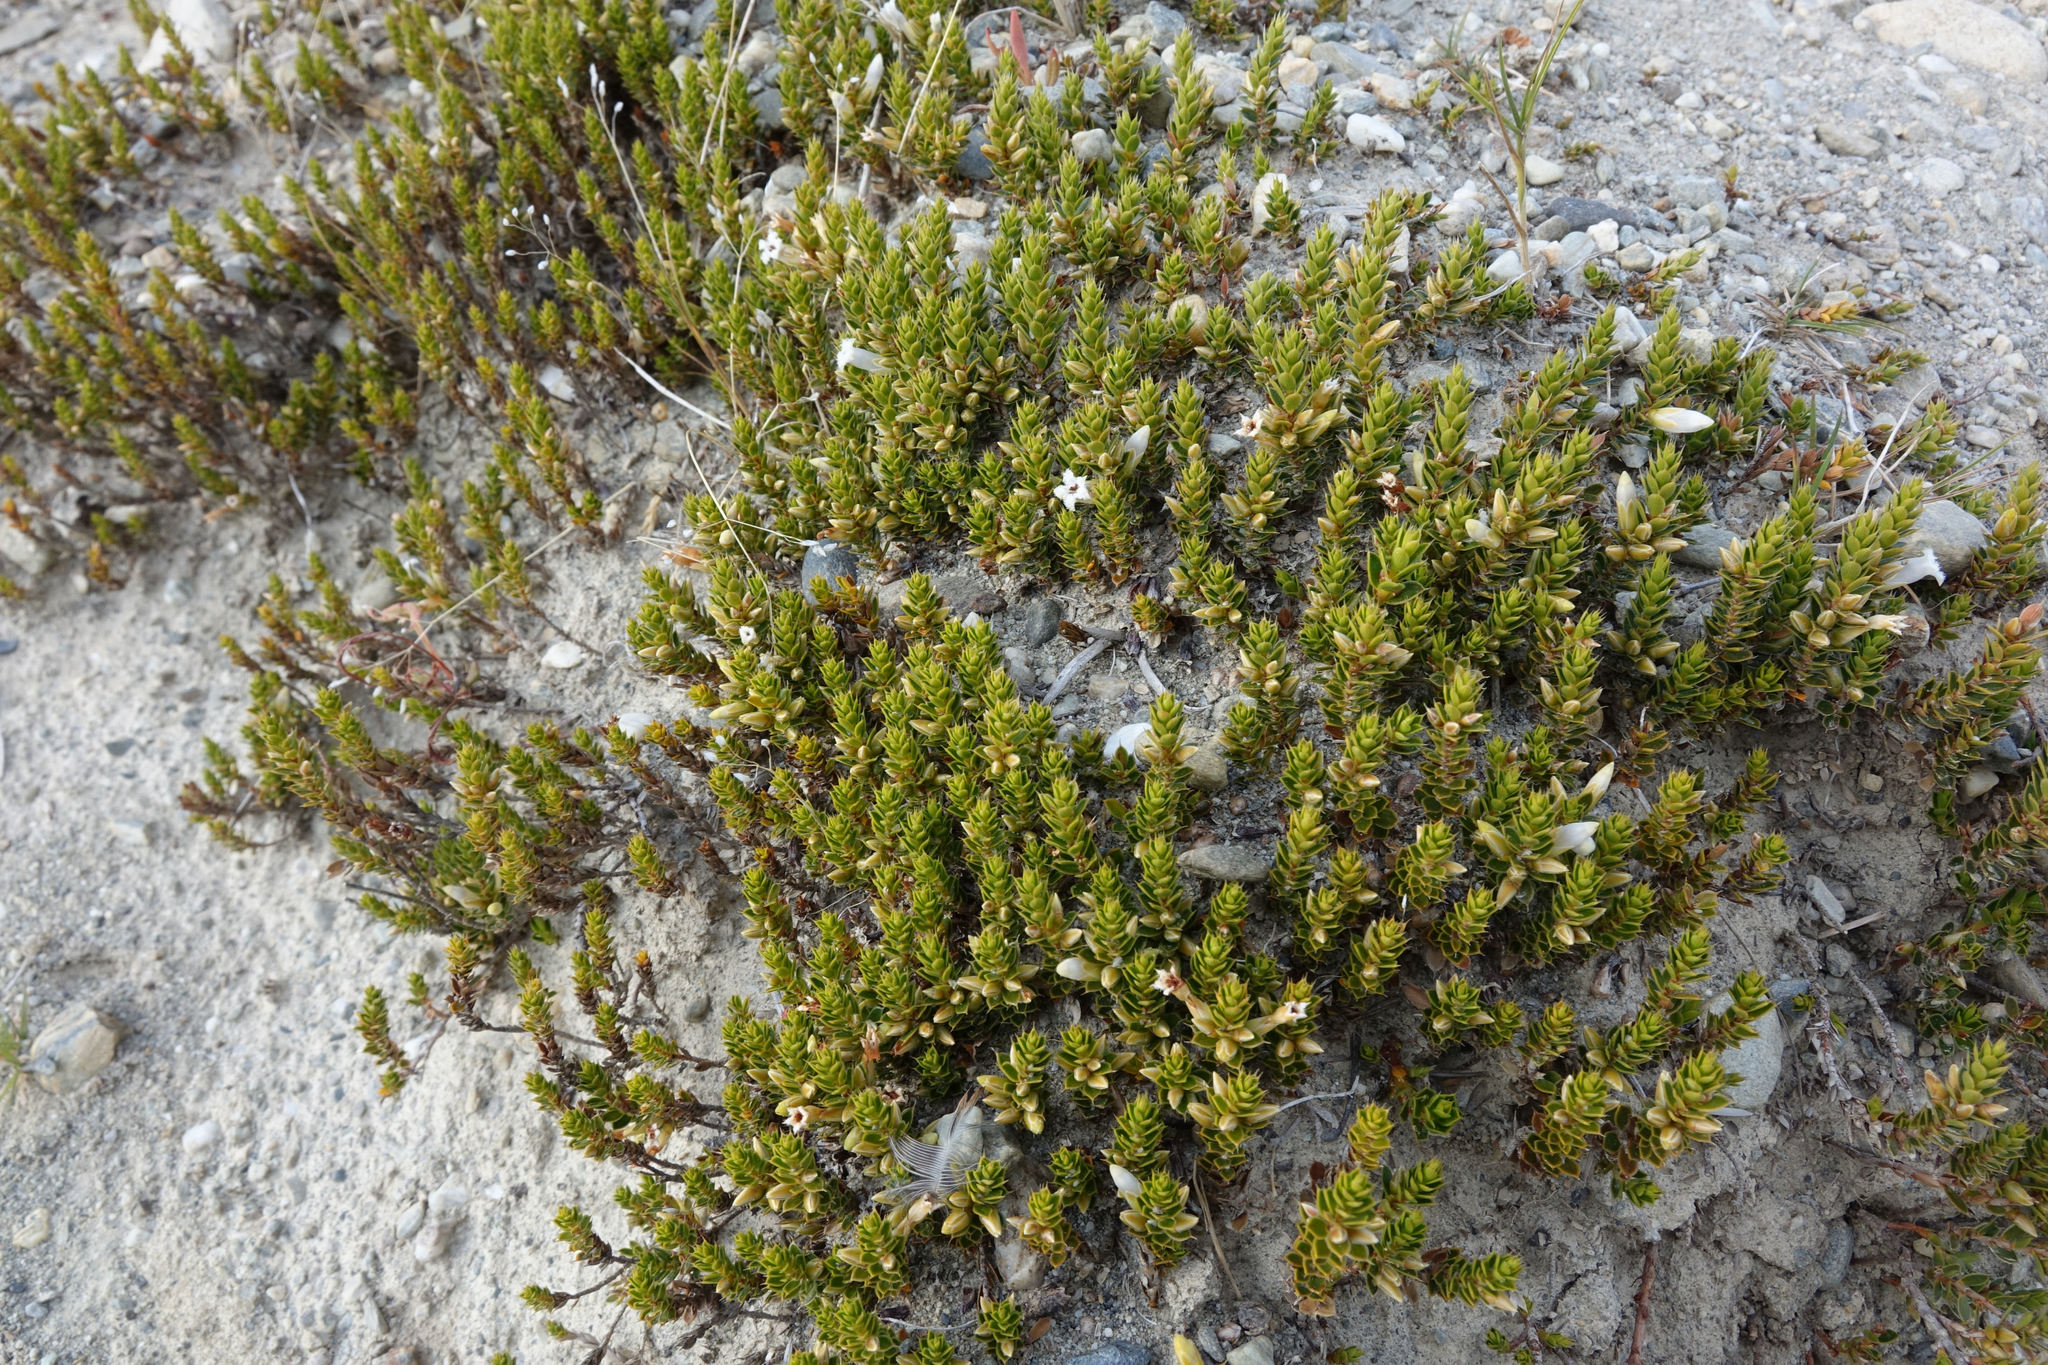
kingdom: Plantae
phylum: Tracheophyta
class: Magnoliopsida
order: Ericales
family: Ericaceae
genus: Styphelia
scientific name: Styphelia nesophila
